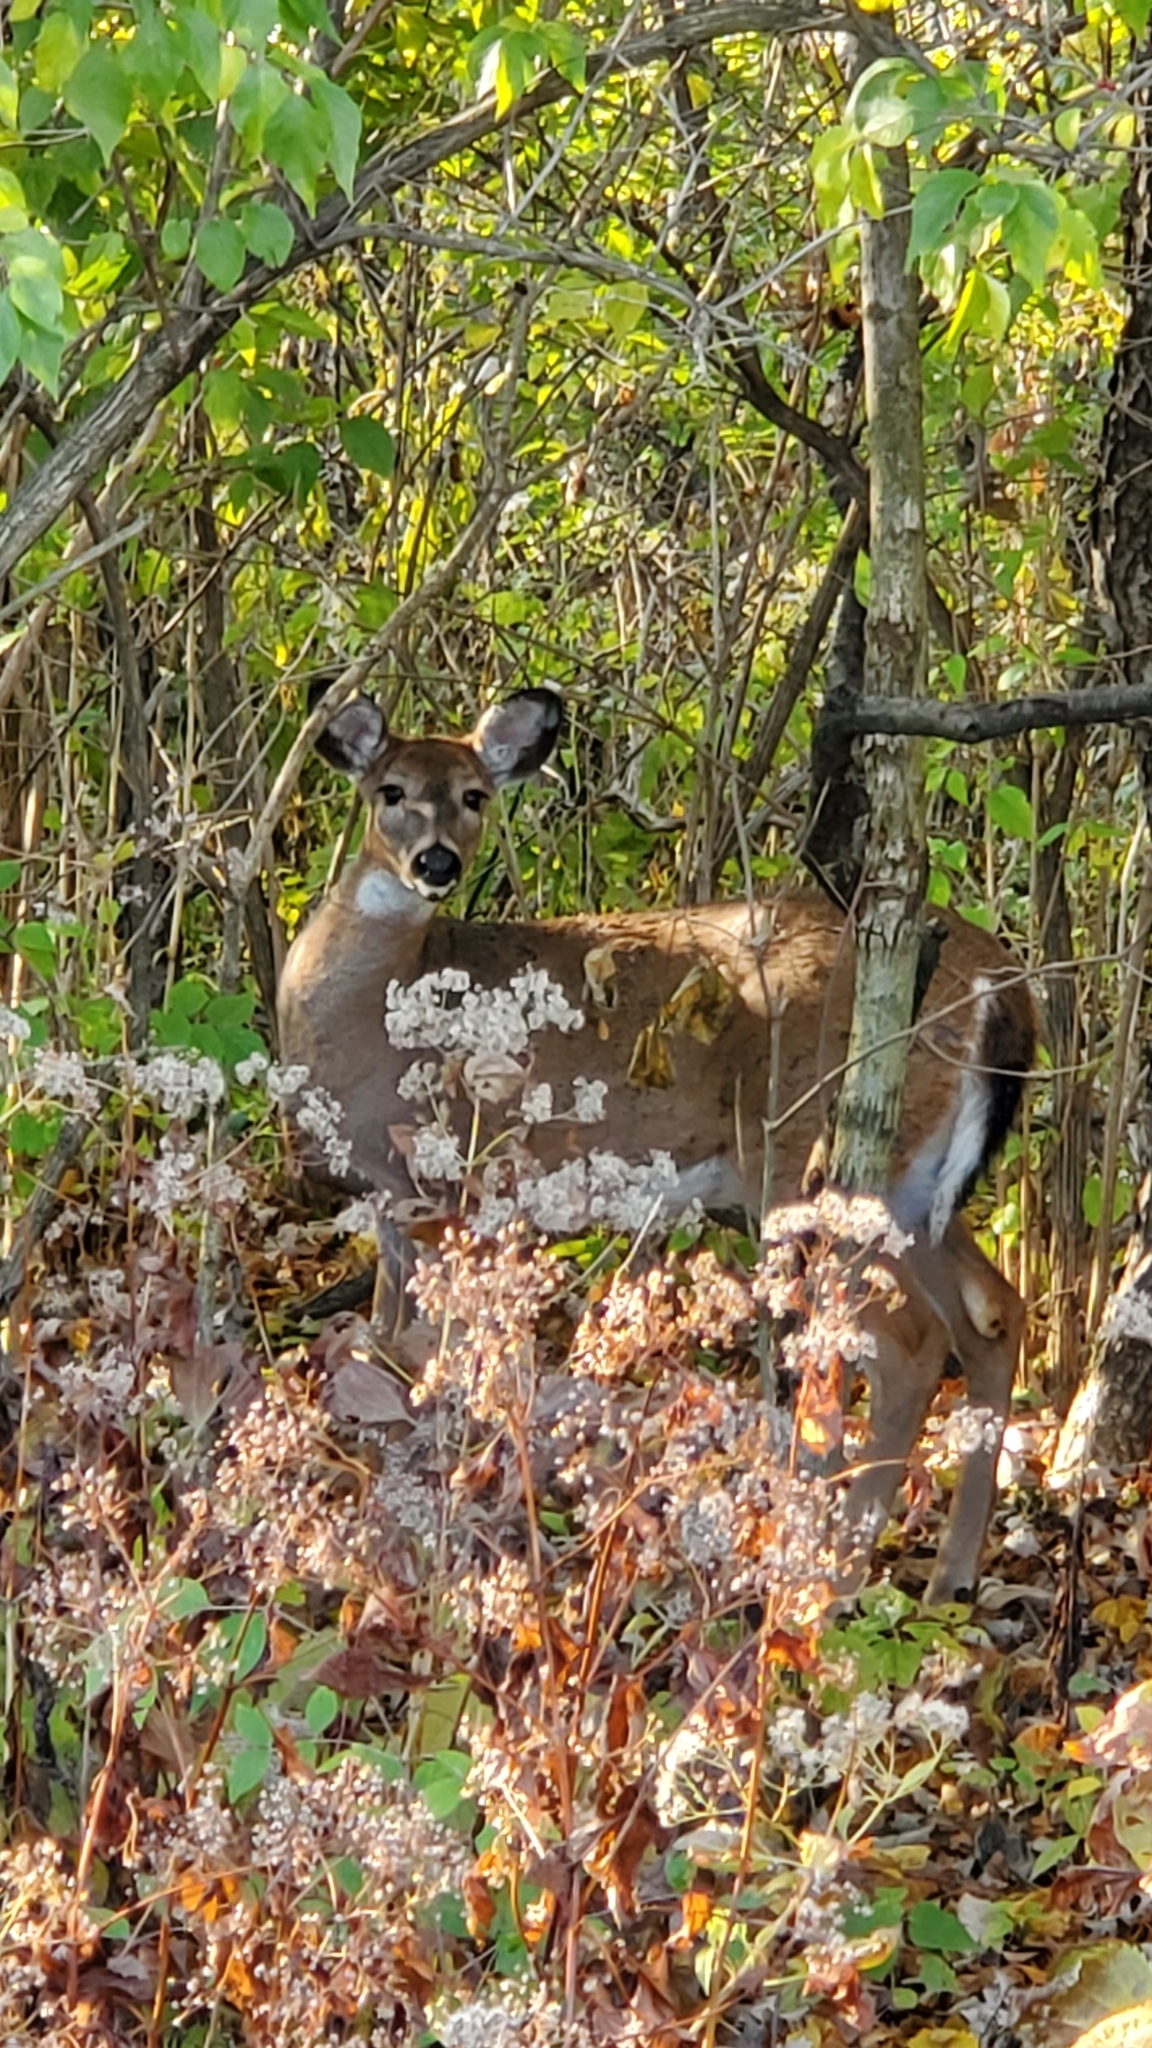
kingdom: Animalia
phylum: Chordata
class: Mammalia
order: Artiodactyla
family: Cervidae
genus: Odocoileus
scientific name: Odocoileus virginianus
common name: White-tailed deer
